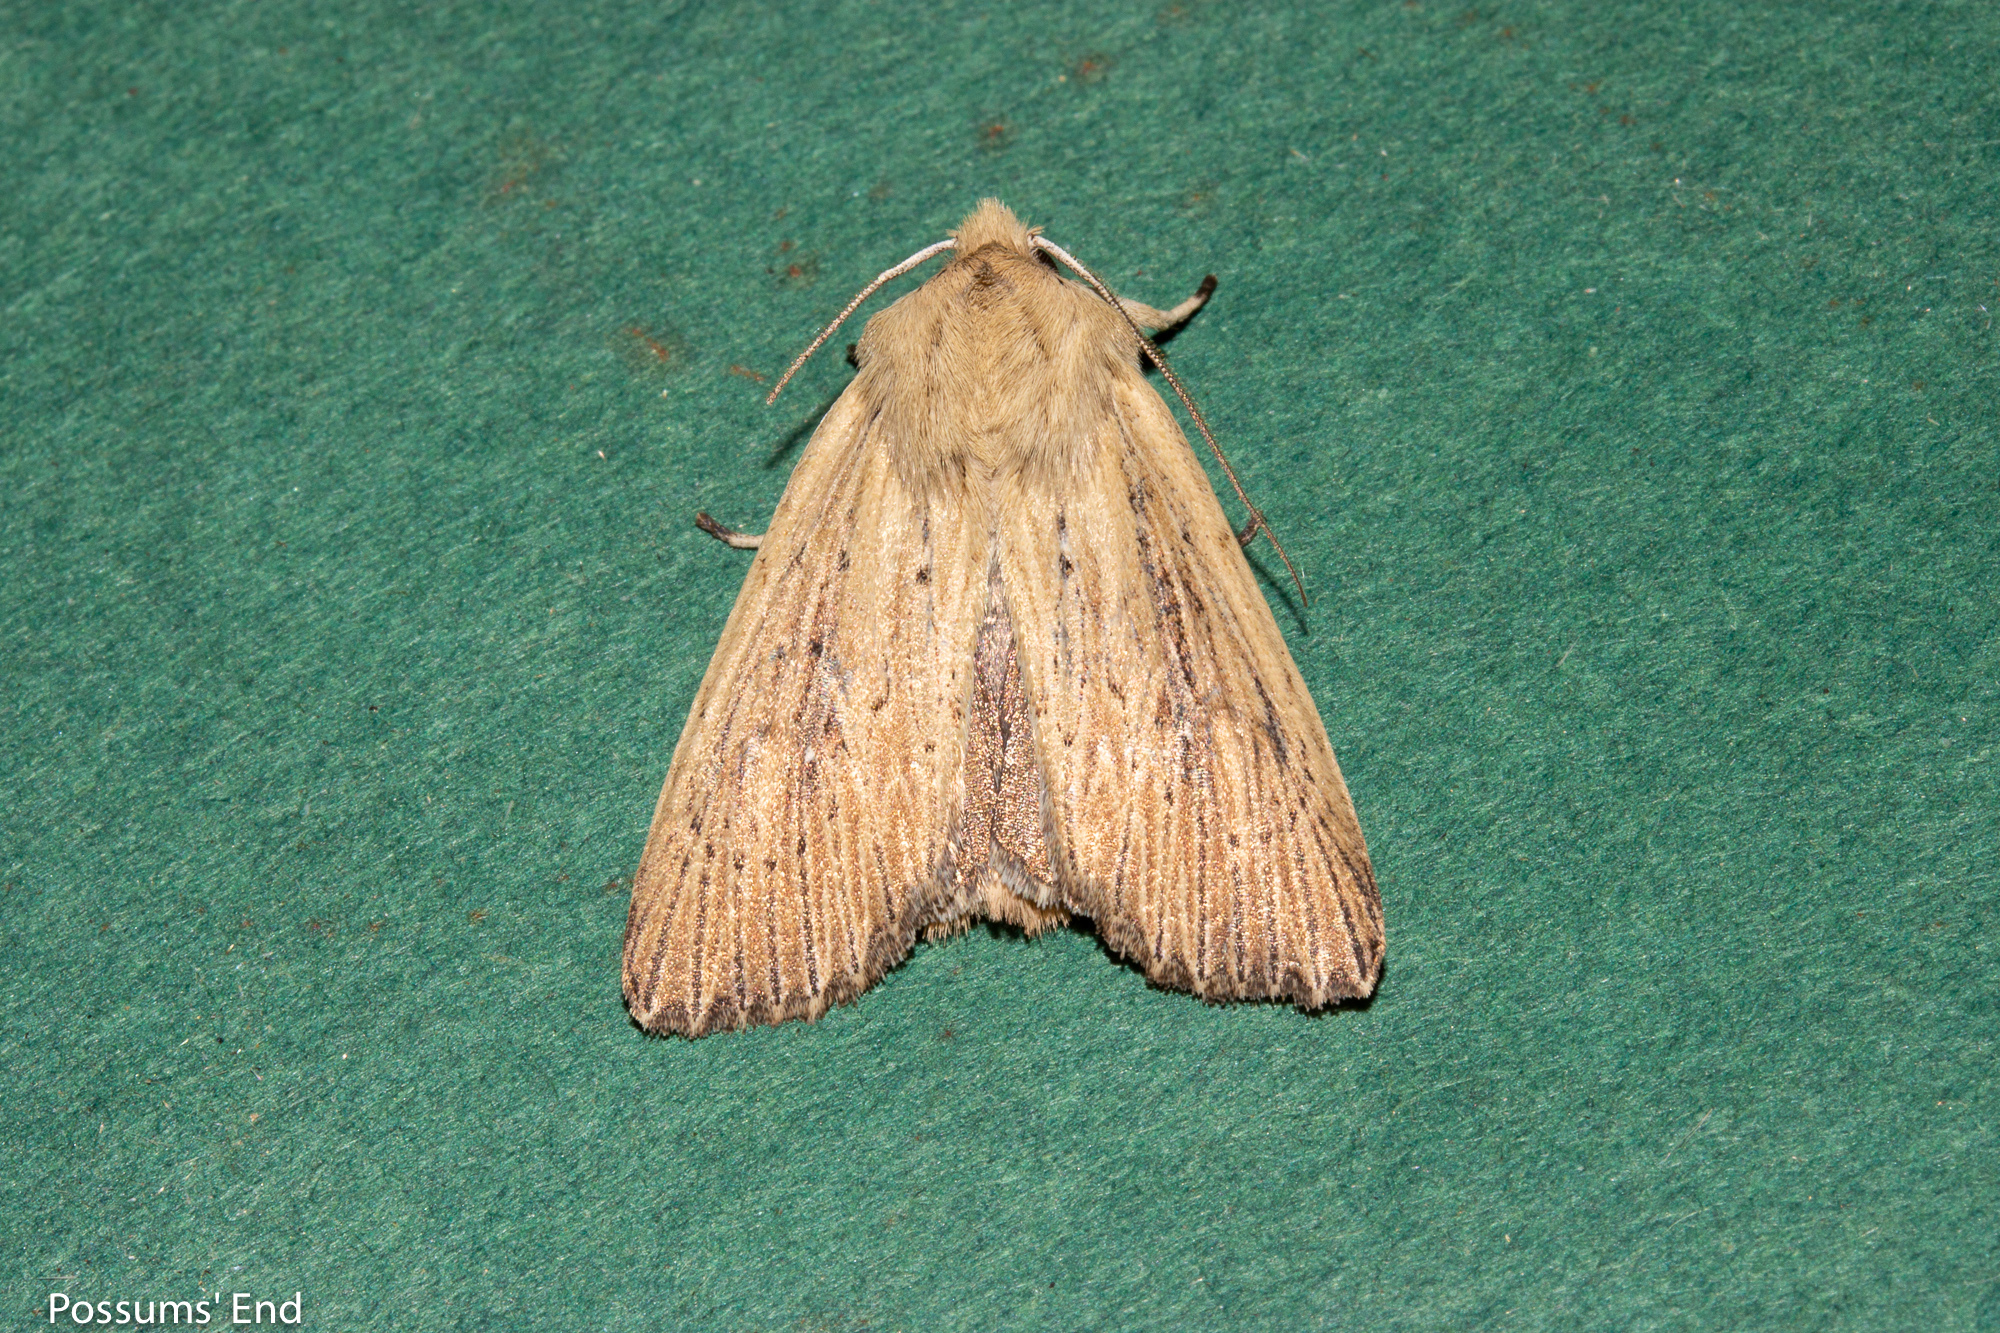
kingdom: Animalia
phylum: Arthropoda
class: Insecta
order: Lepidoptera
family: Noctuidae
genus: Ichneutica
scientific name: Ichneutica arotis
